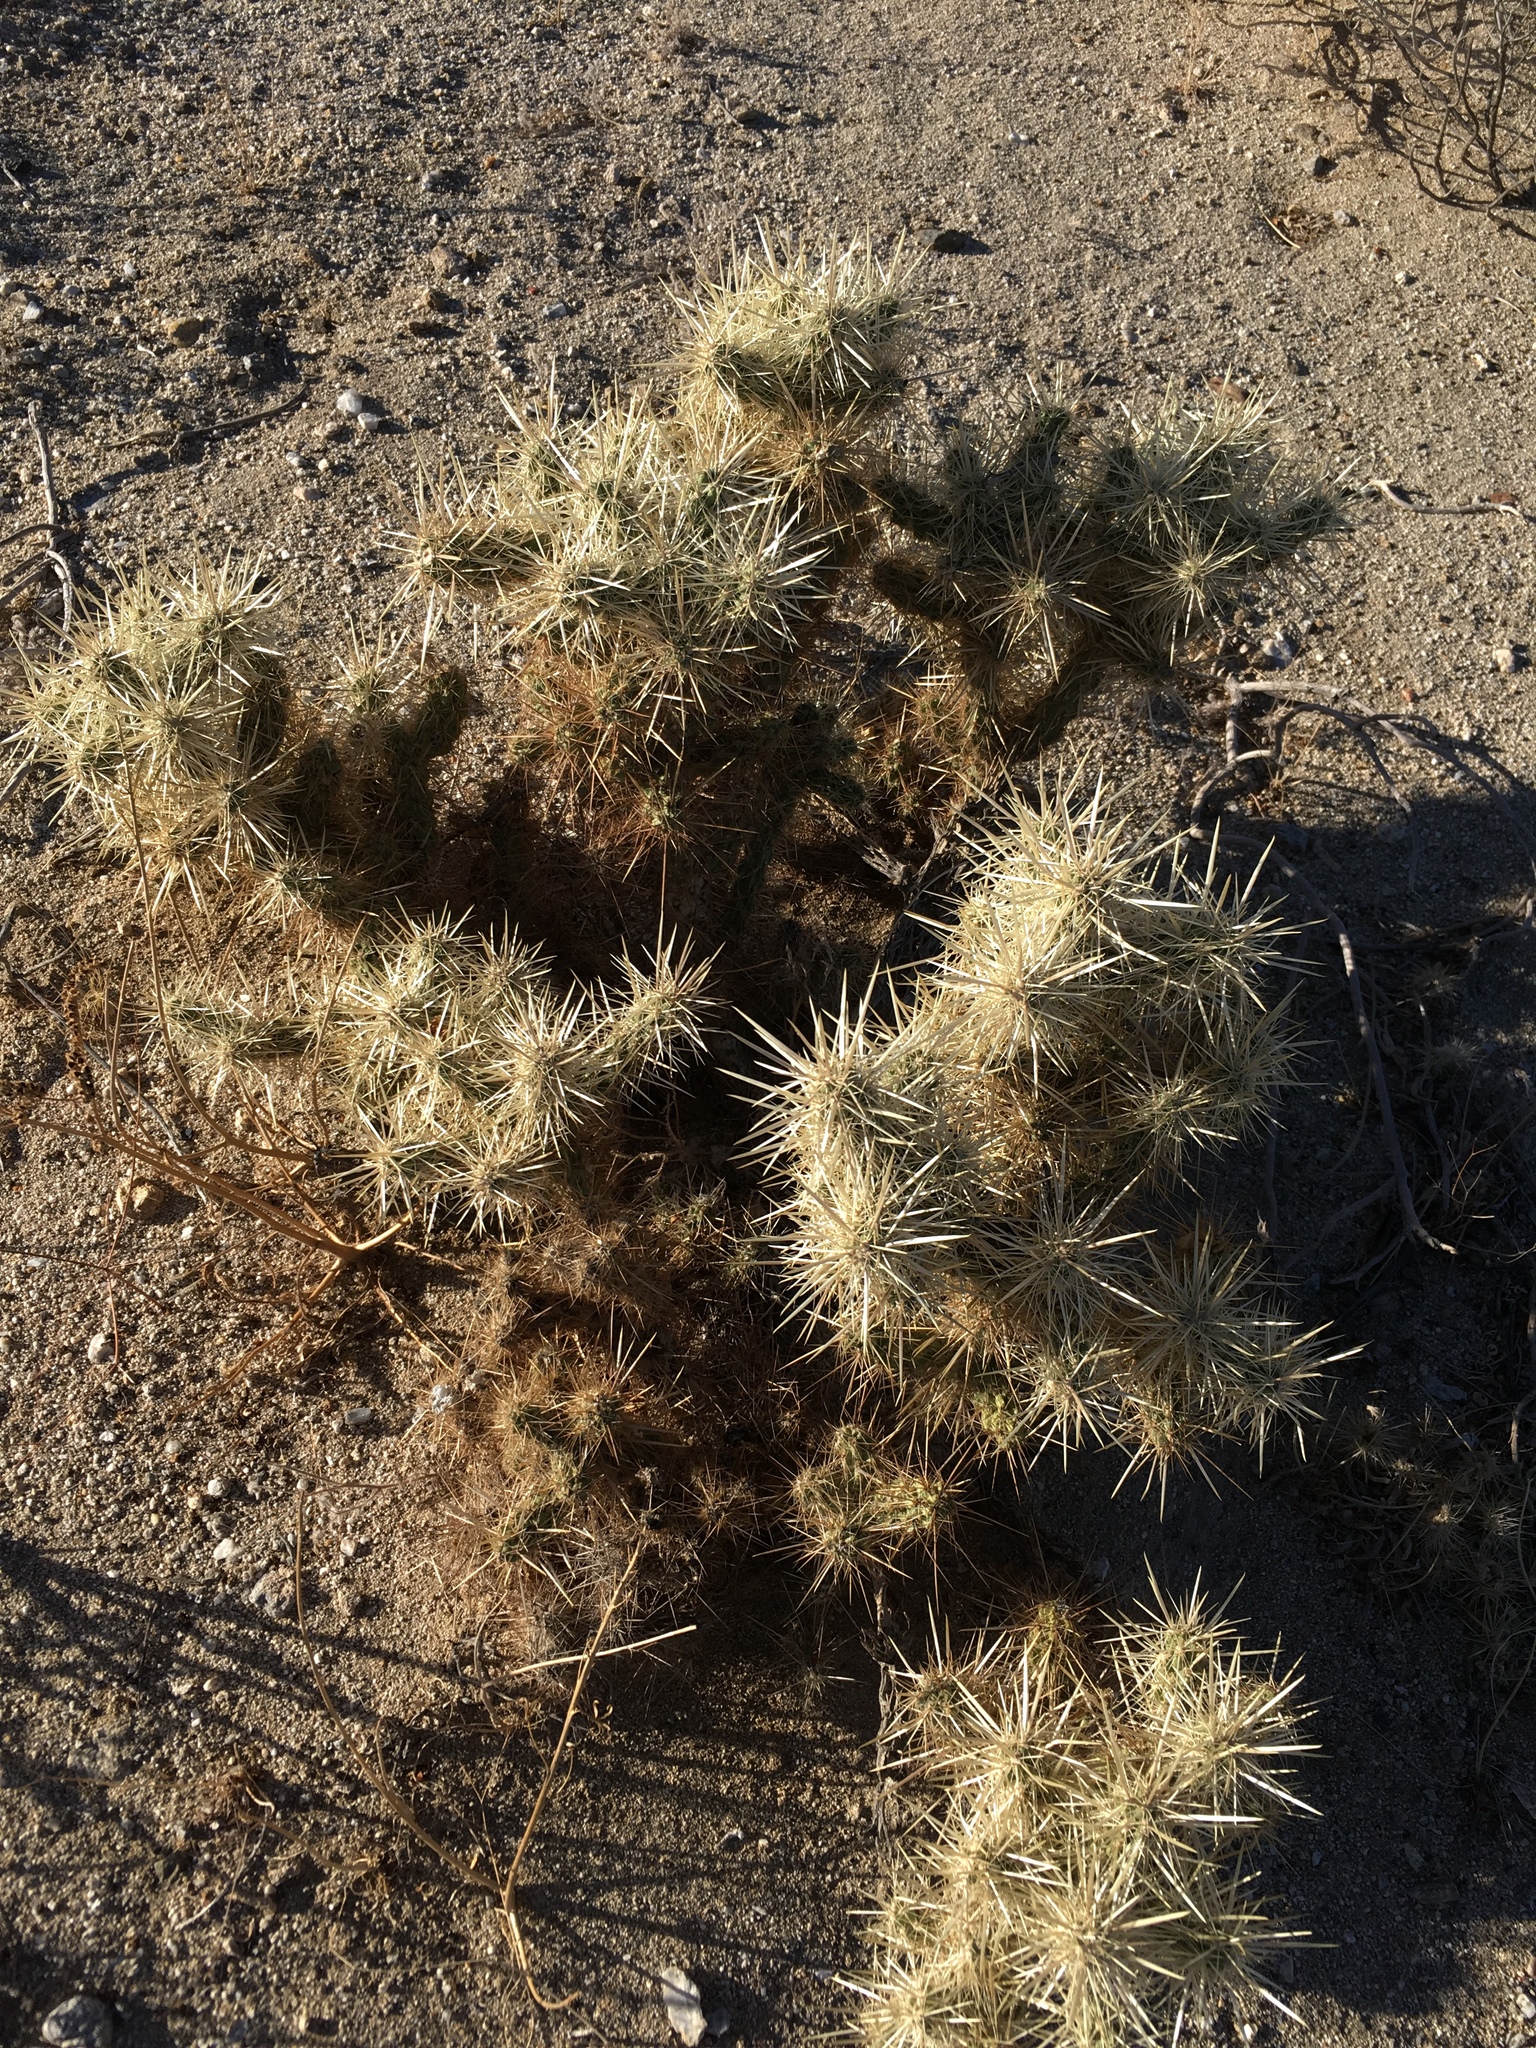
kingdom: Plantae
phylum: Tracheophyta
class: Magnoliopsida
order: Caryophyllales
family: Cactaceae
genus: Cylindropuntia
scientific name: Cylindropuntia echinocarpa
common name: Ground cholla
